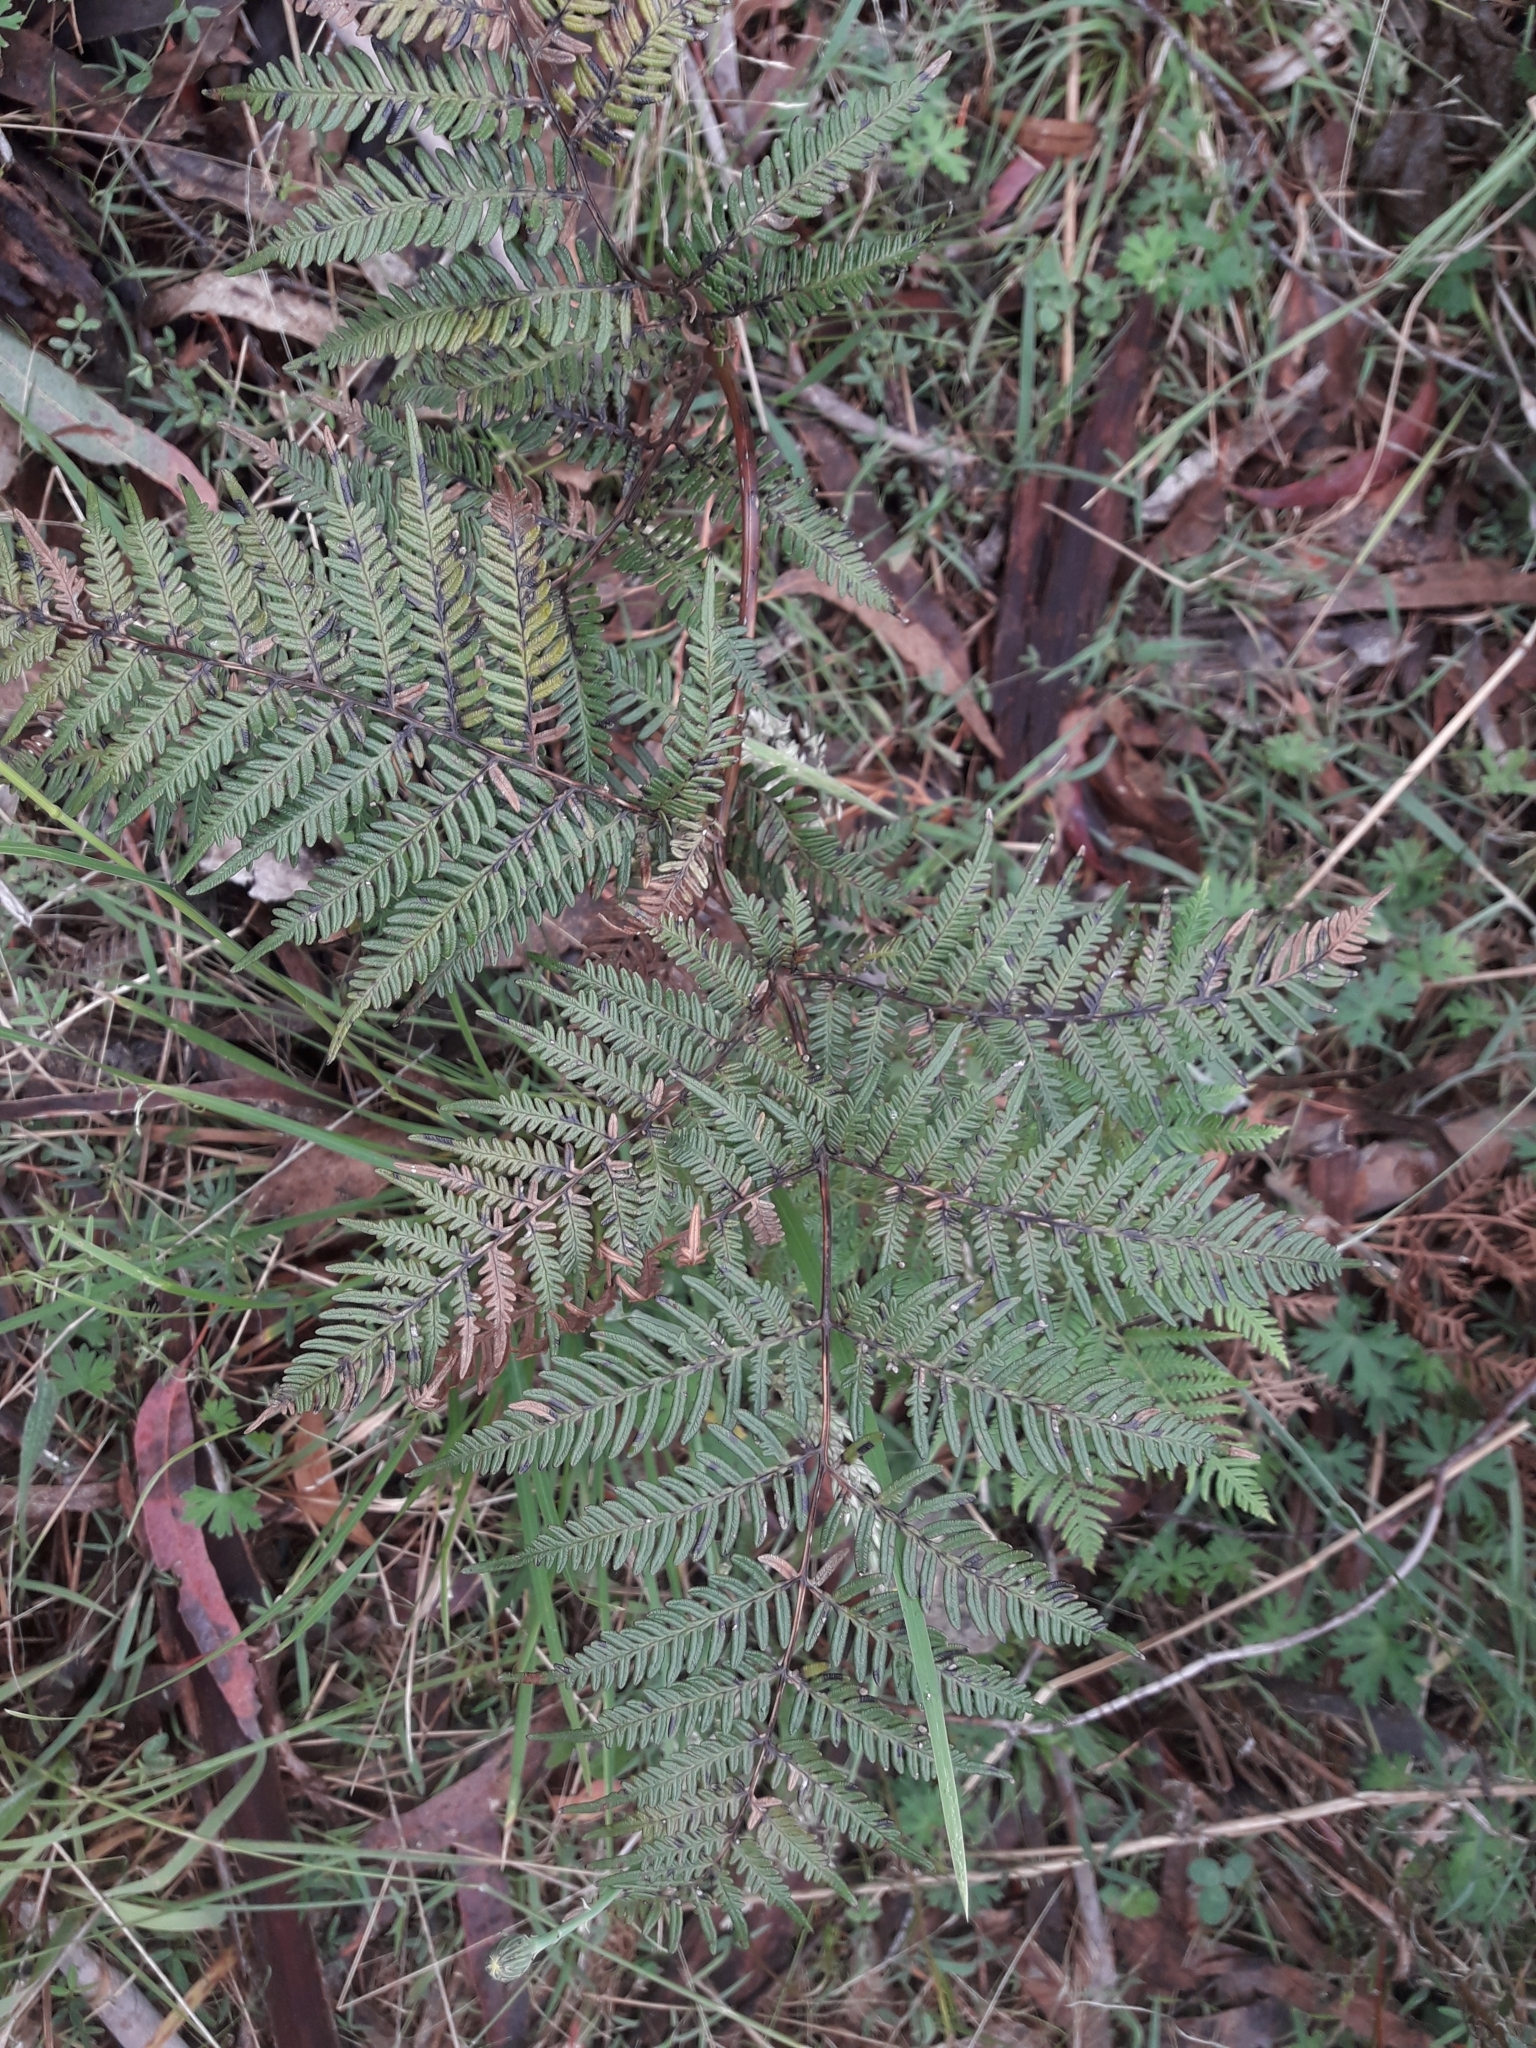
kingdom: Plantae
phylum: Tracheophyta
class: Polypodiopsida
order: Polypodiales
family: Dennstaedtiaceae
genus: Pteridium
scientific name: Pteridium esculentum
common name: Bracken fern
